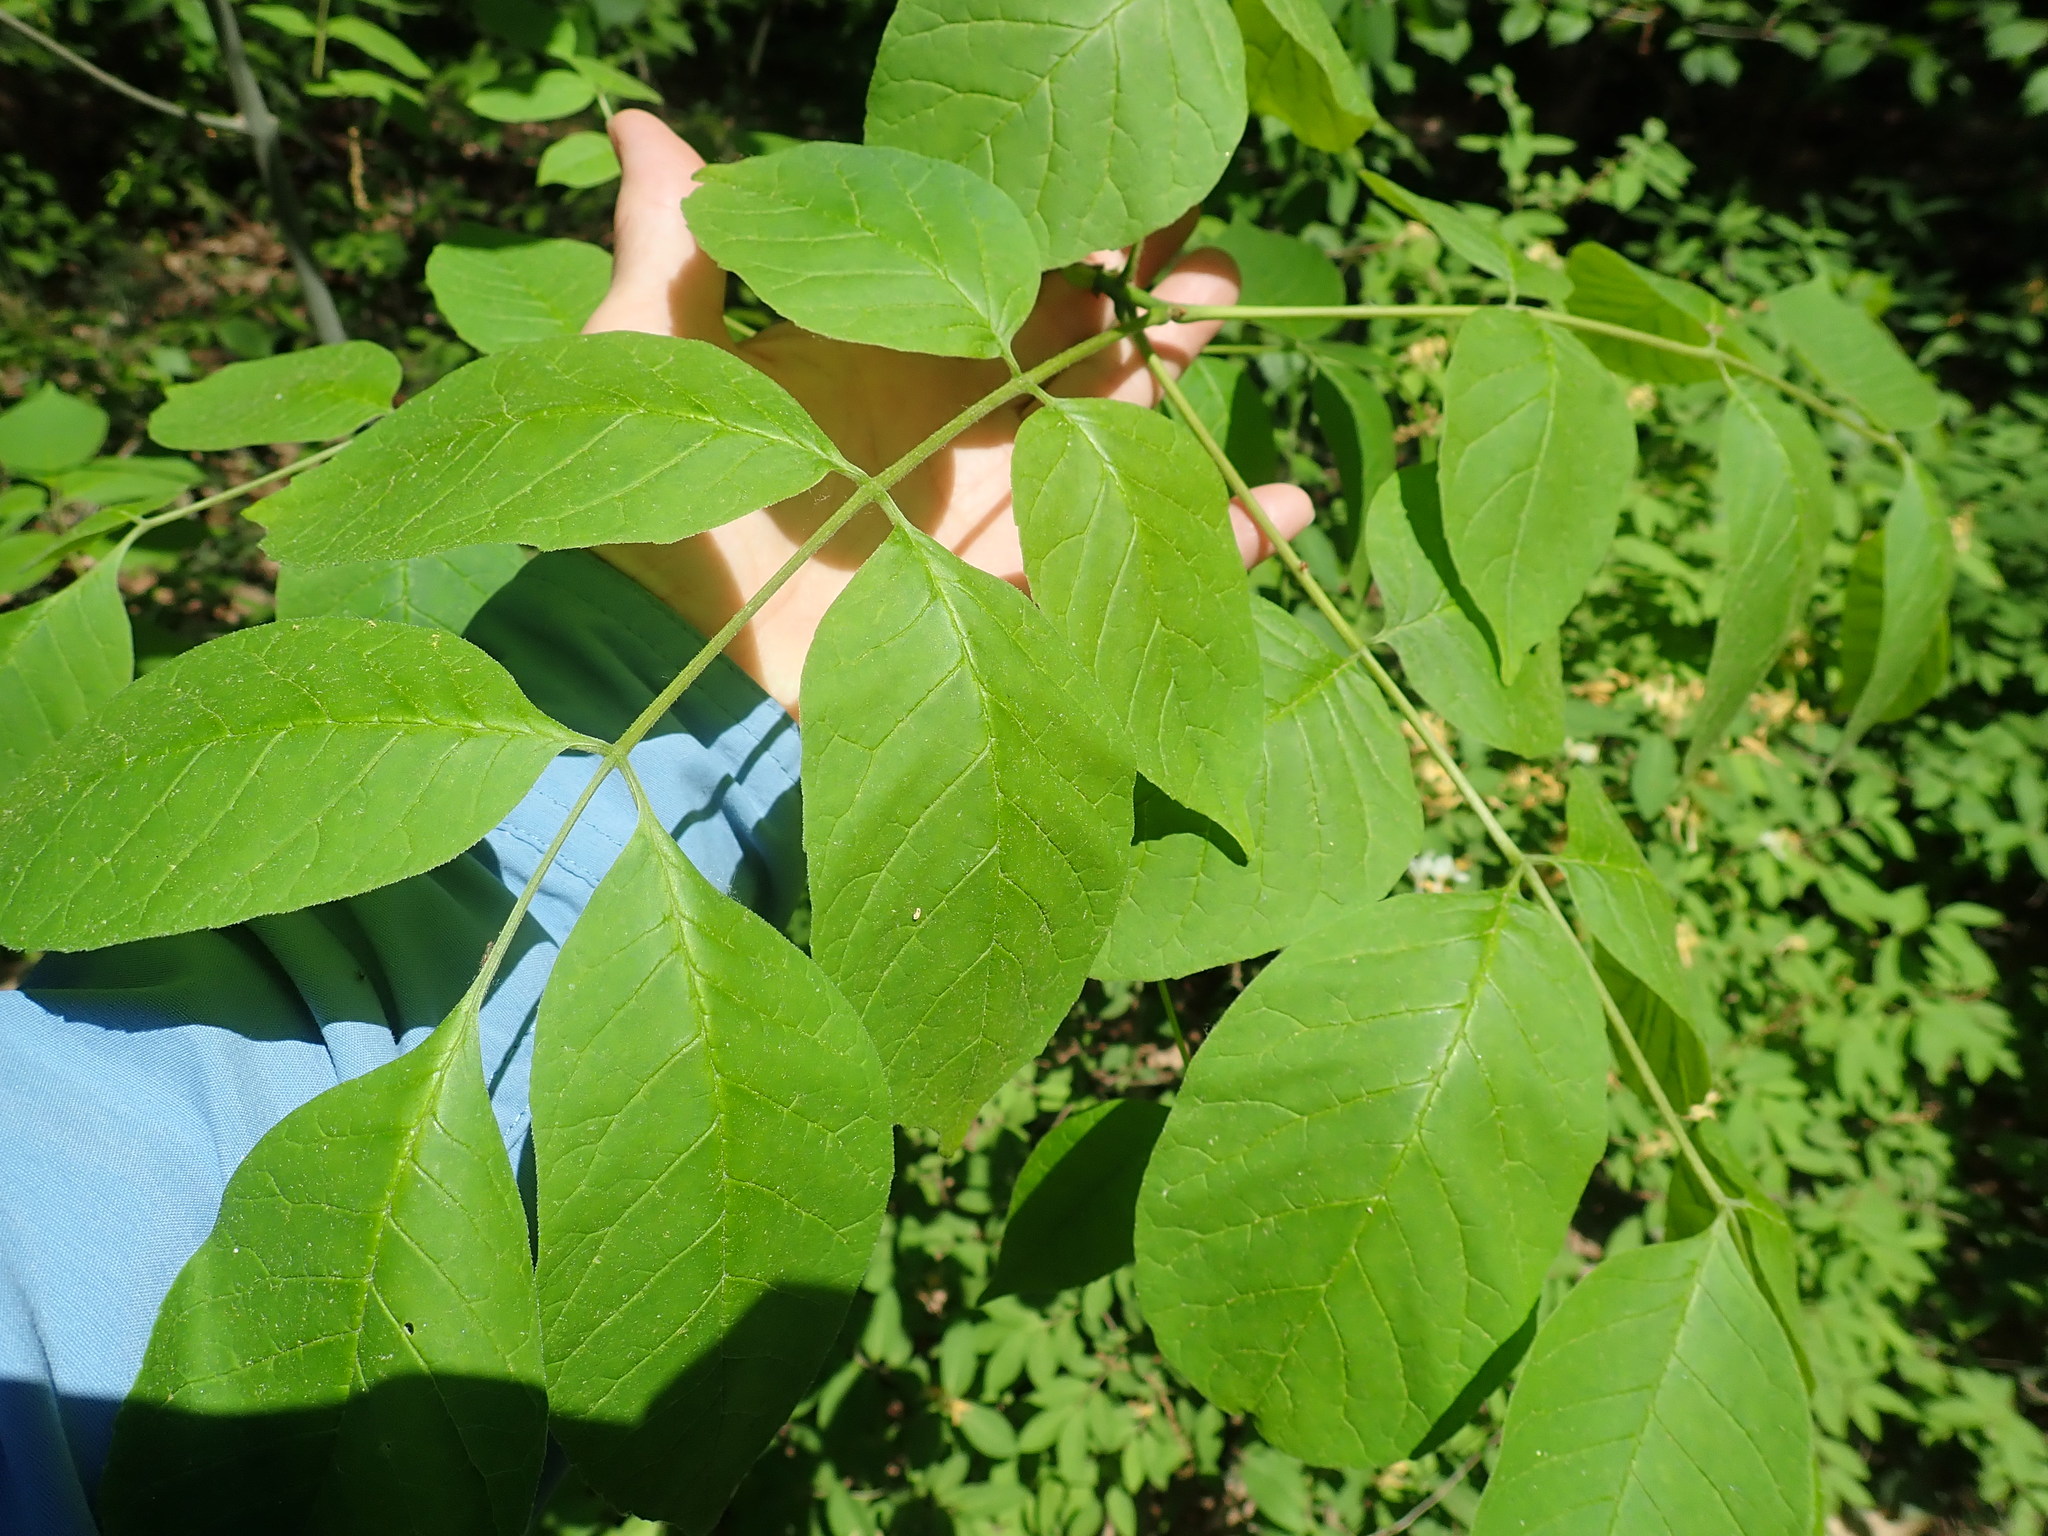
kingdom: Plantae
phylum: Tracheophyta
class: Magnoliopsida
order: Lamiales
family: Oleaceae
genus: Fraxinus
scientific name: Fraxinus
